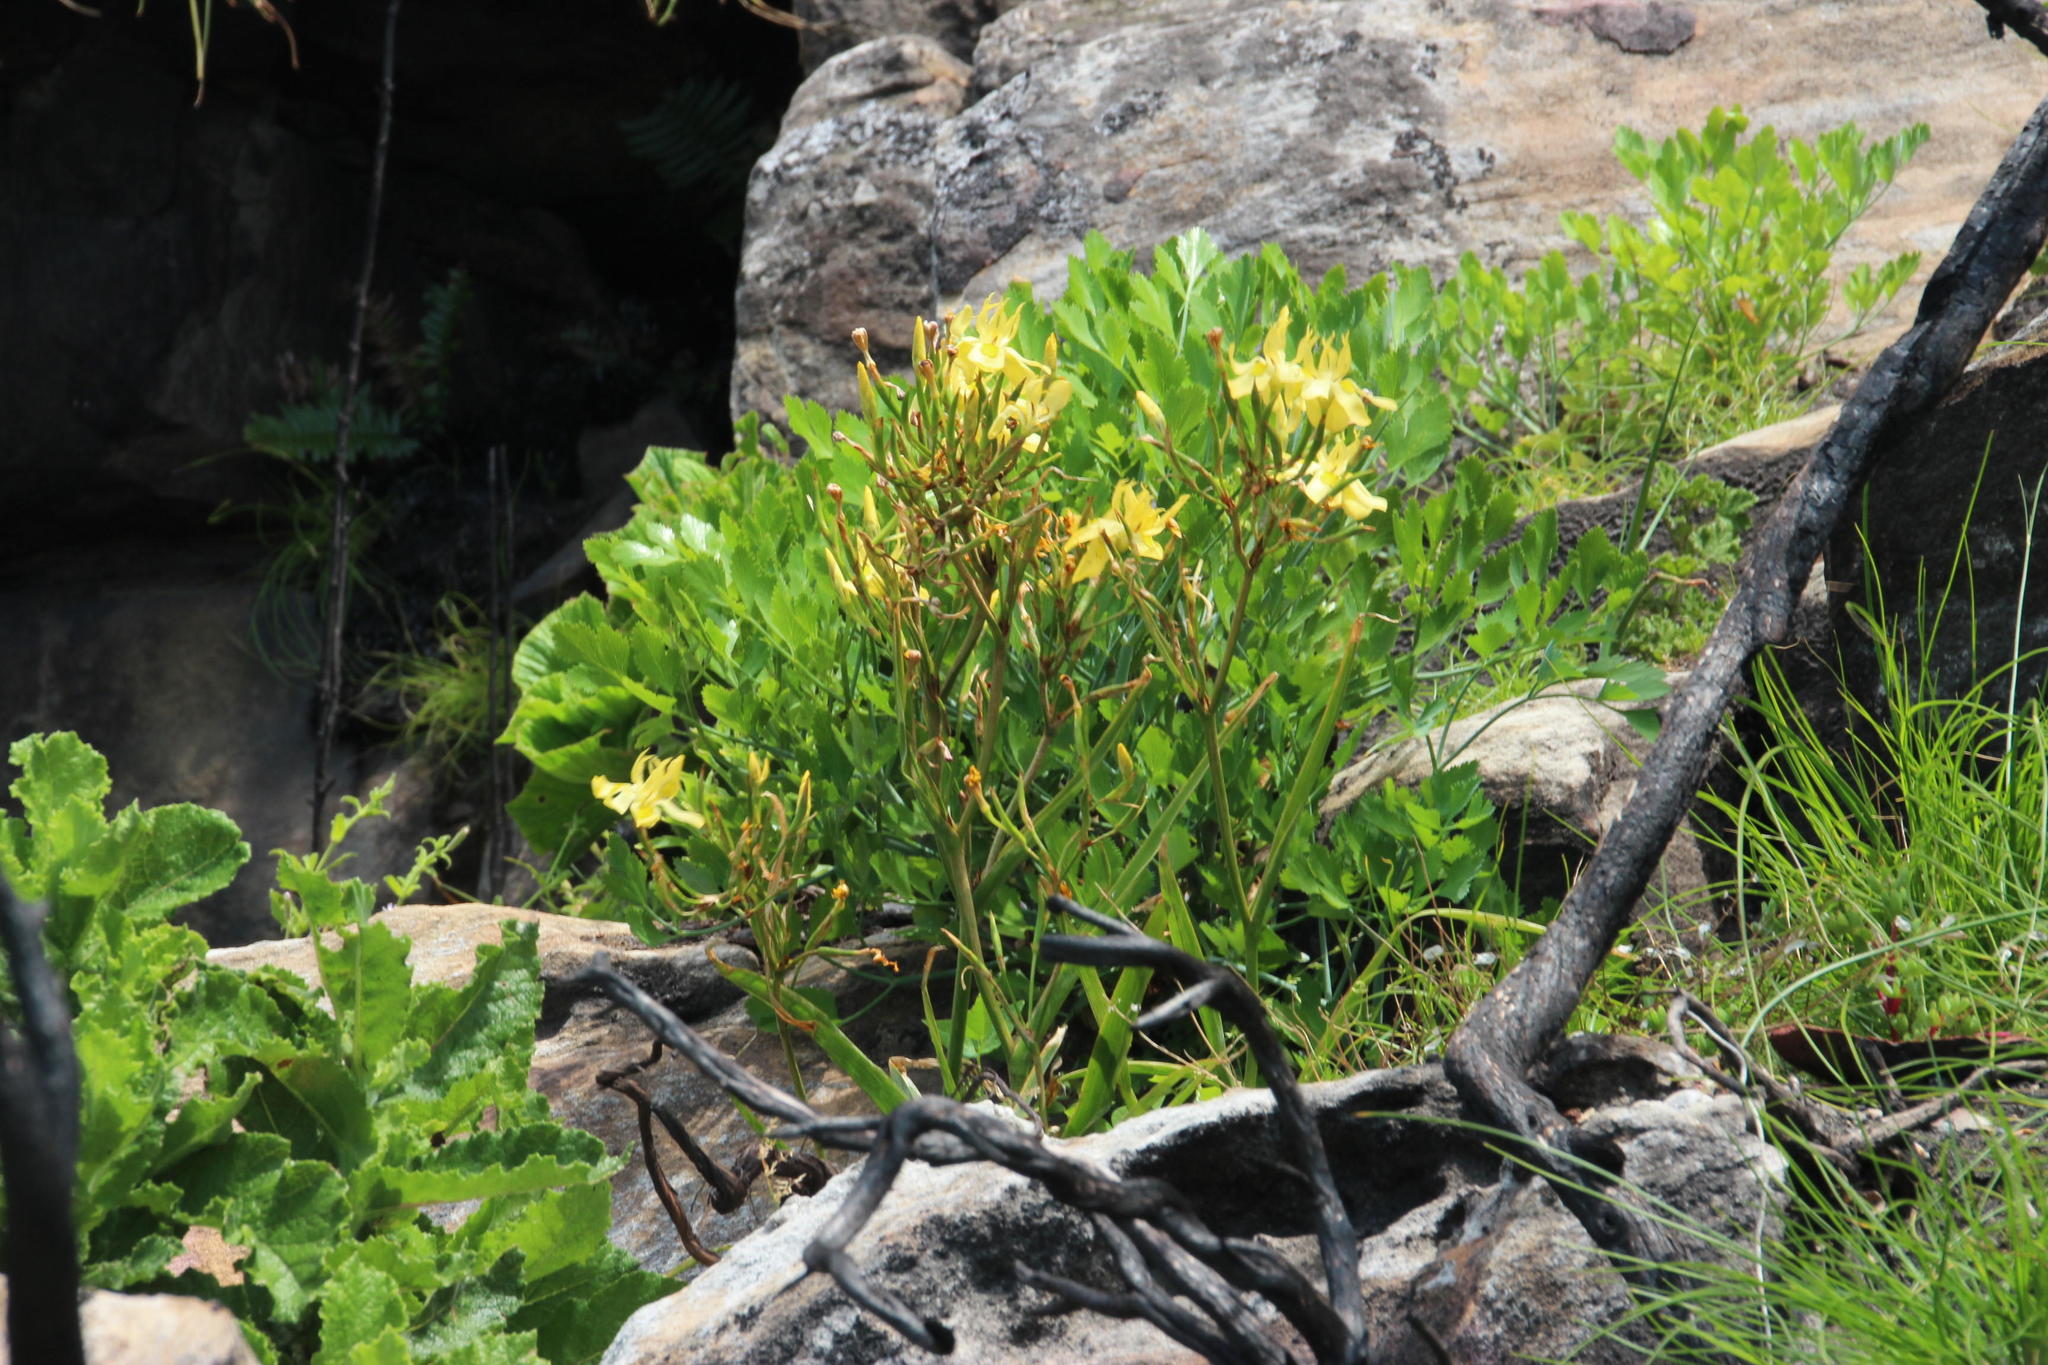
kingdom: Plantae
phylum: Tracheophyta
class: Liliopsida
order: Asparagales
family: Iridaceae
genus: Moraea
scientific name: Moraea ramosissima
